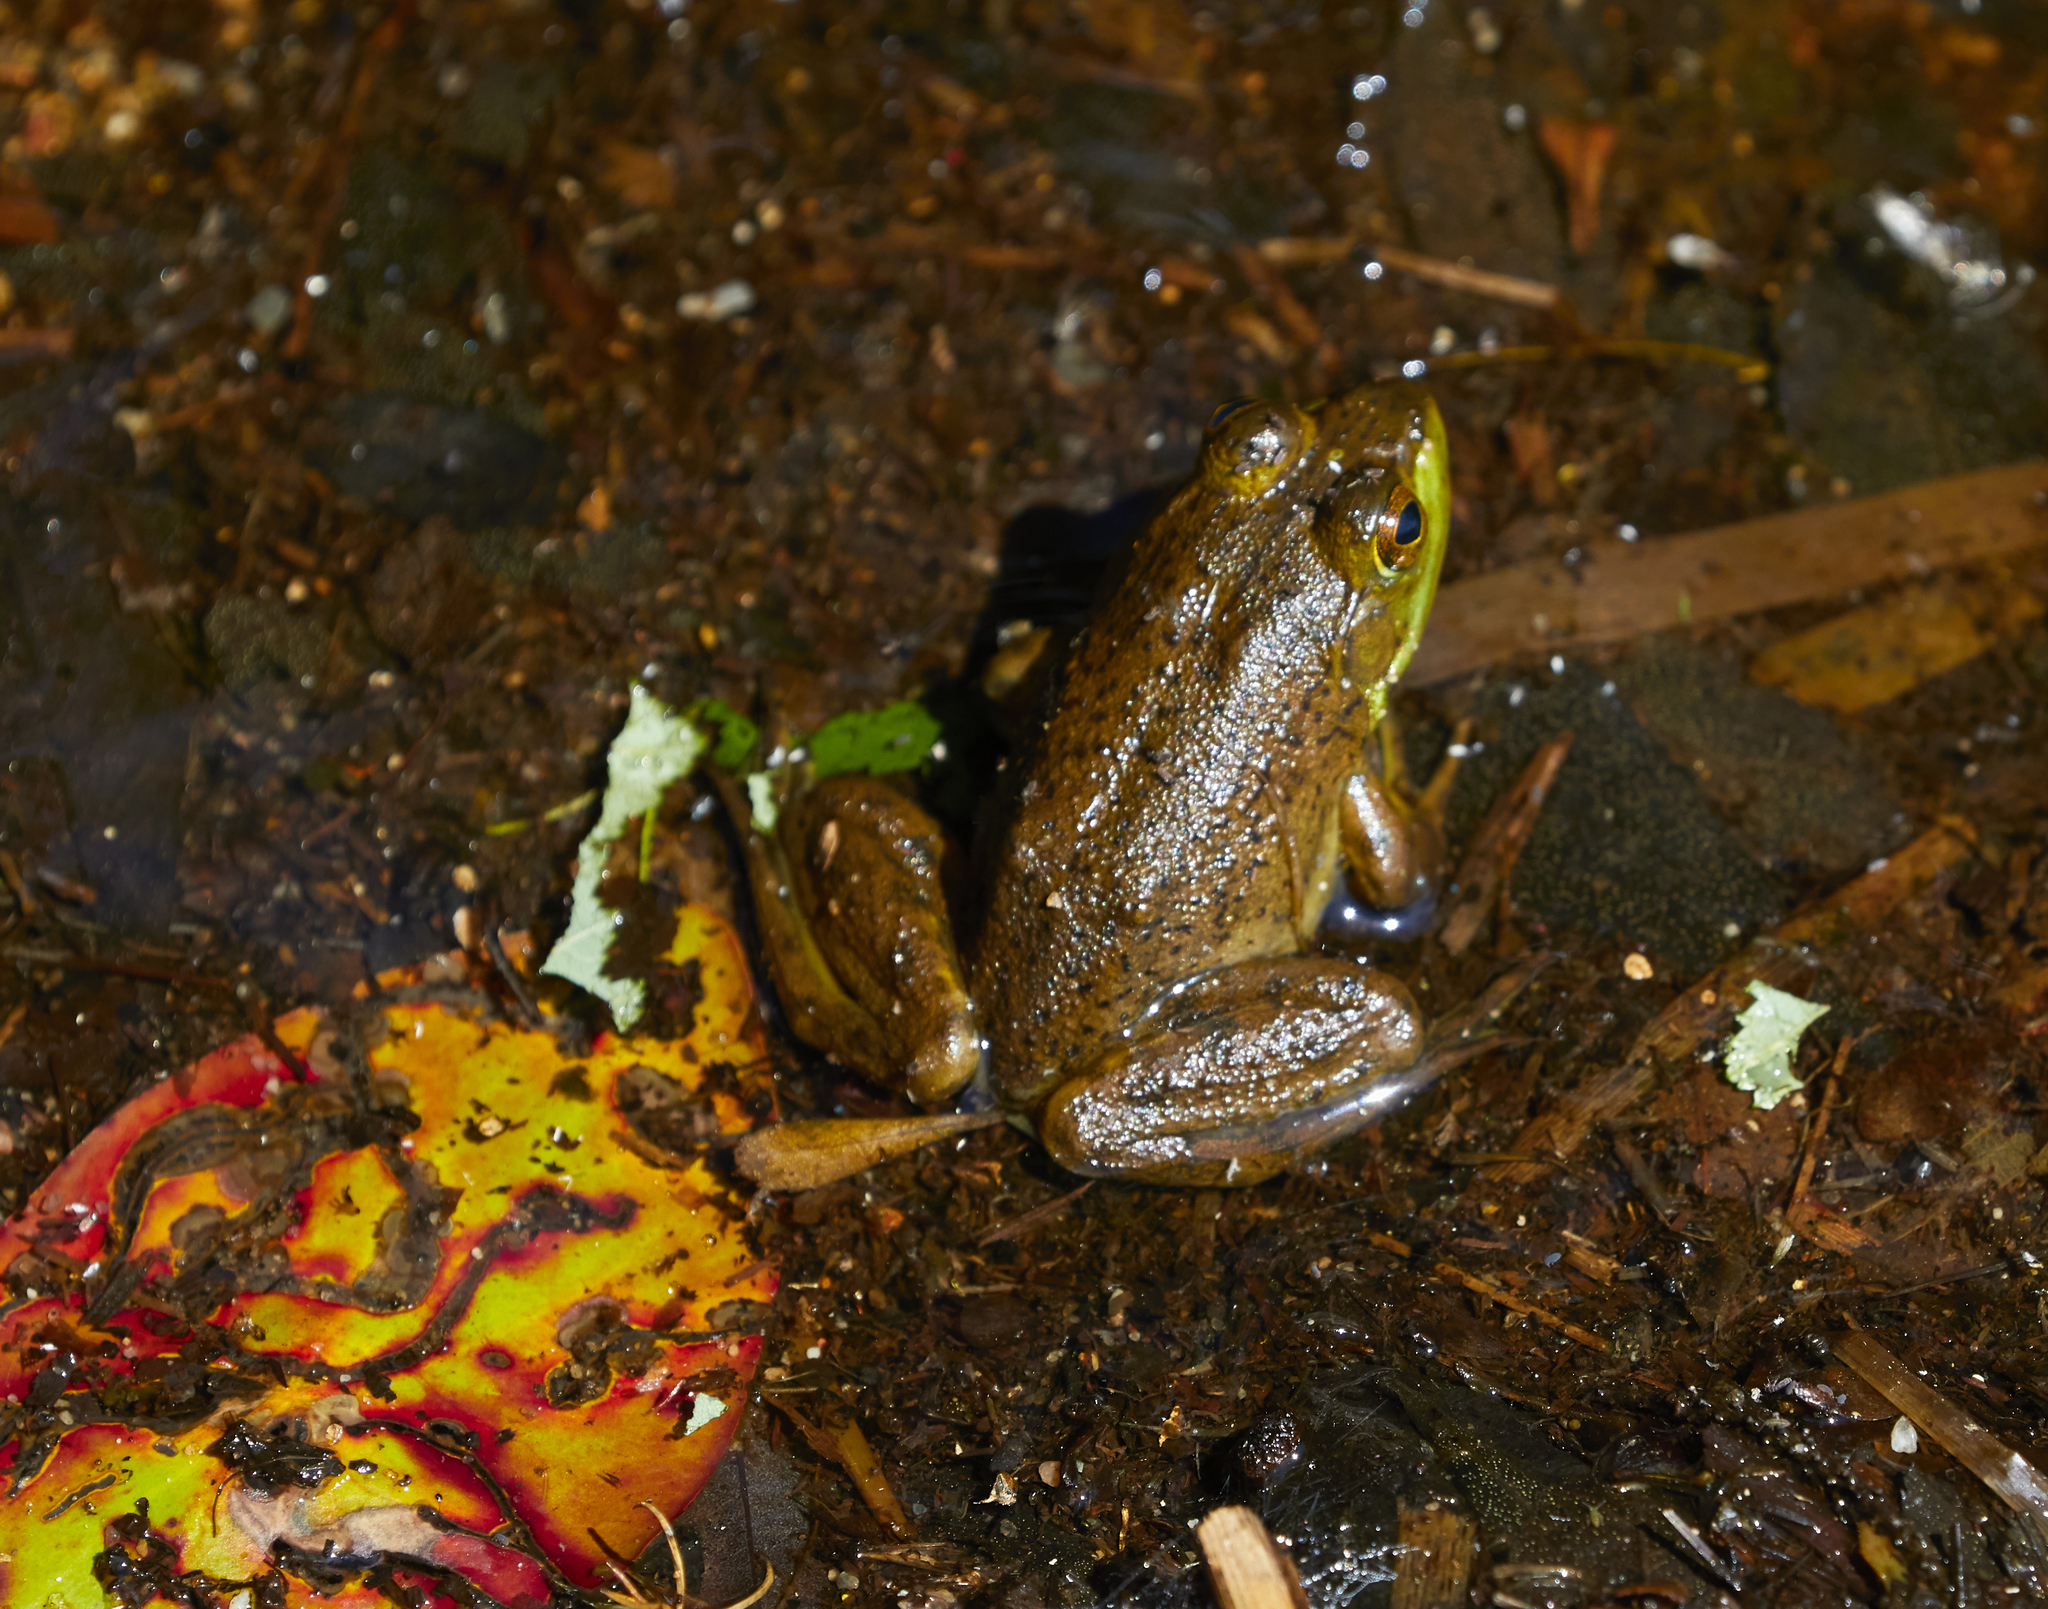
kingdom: Animalia
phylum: Chordata
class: Amphibia
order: Anura
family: Ranidae
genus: Lithobates
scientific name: Lithobates catesbeianus
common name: American bullfrog
